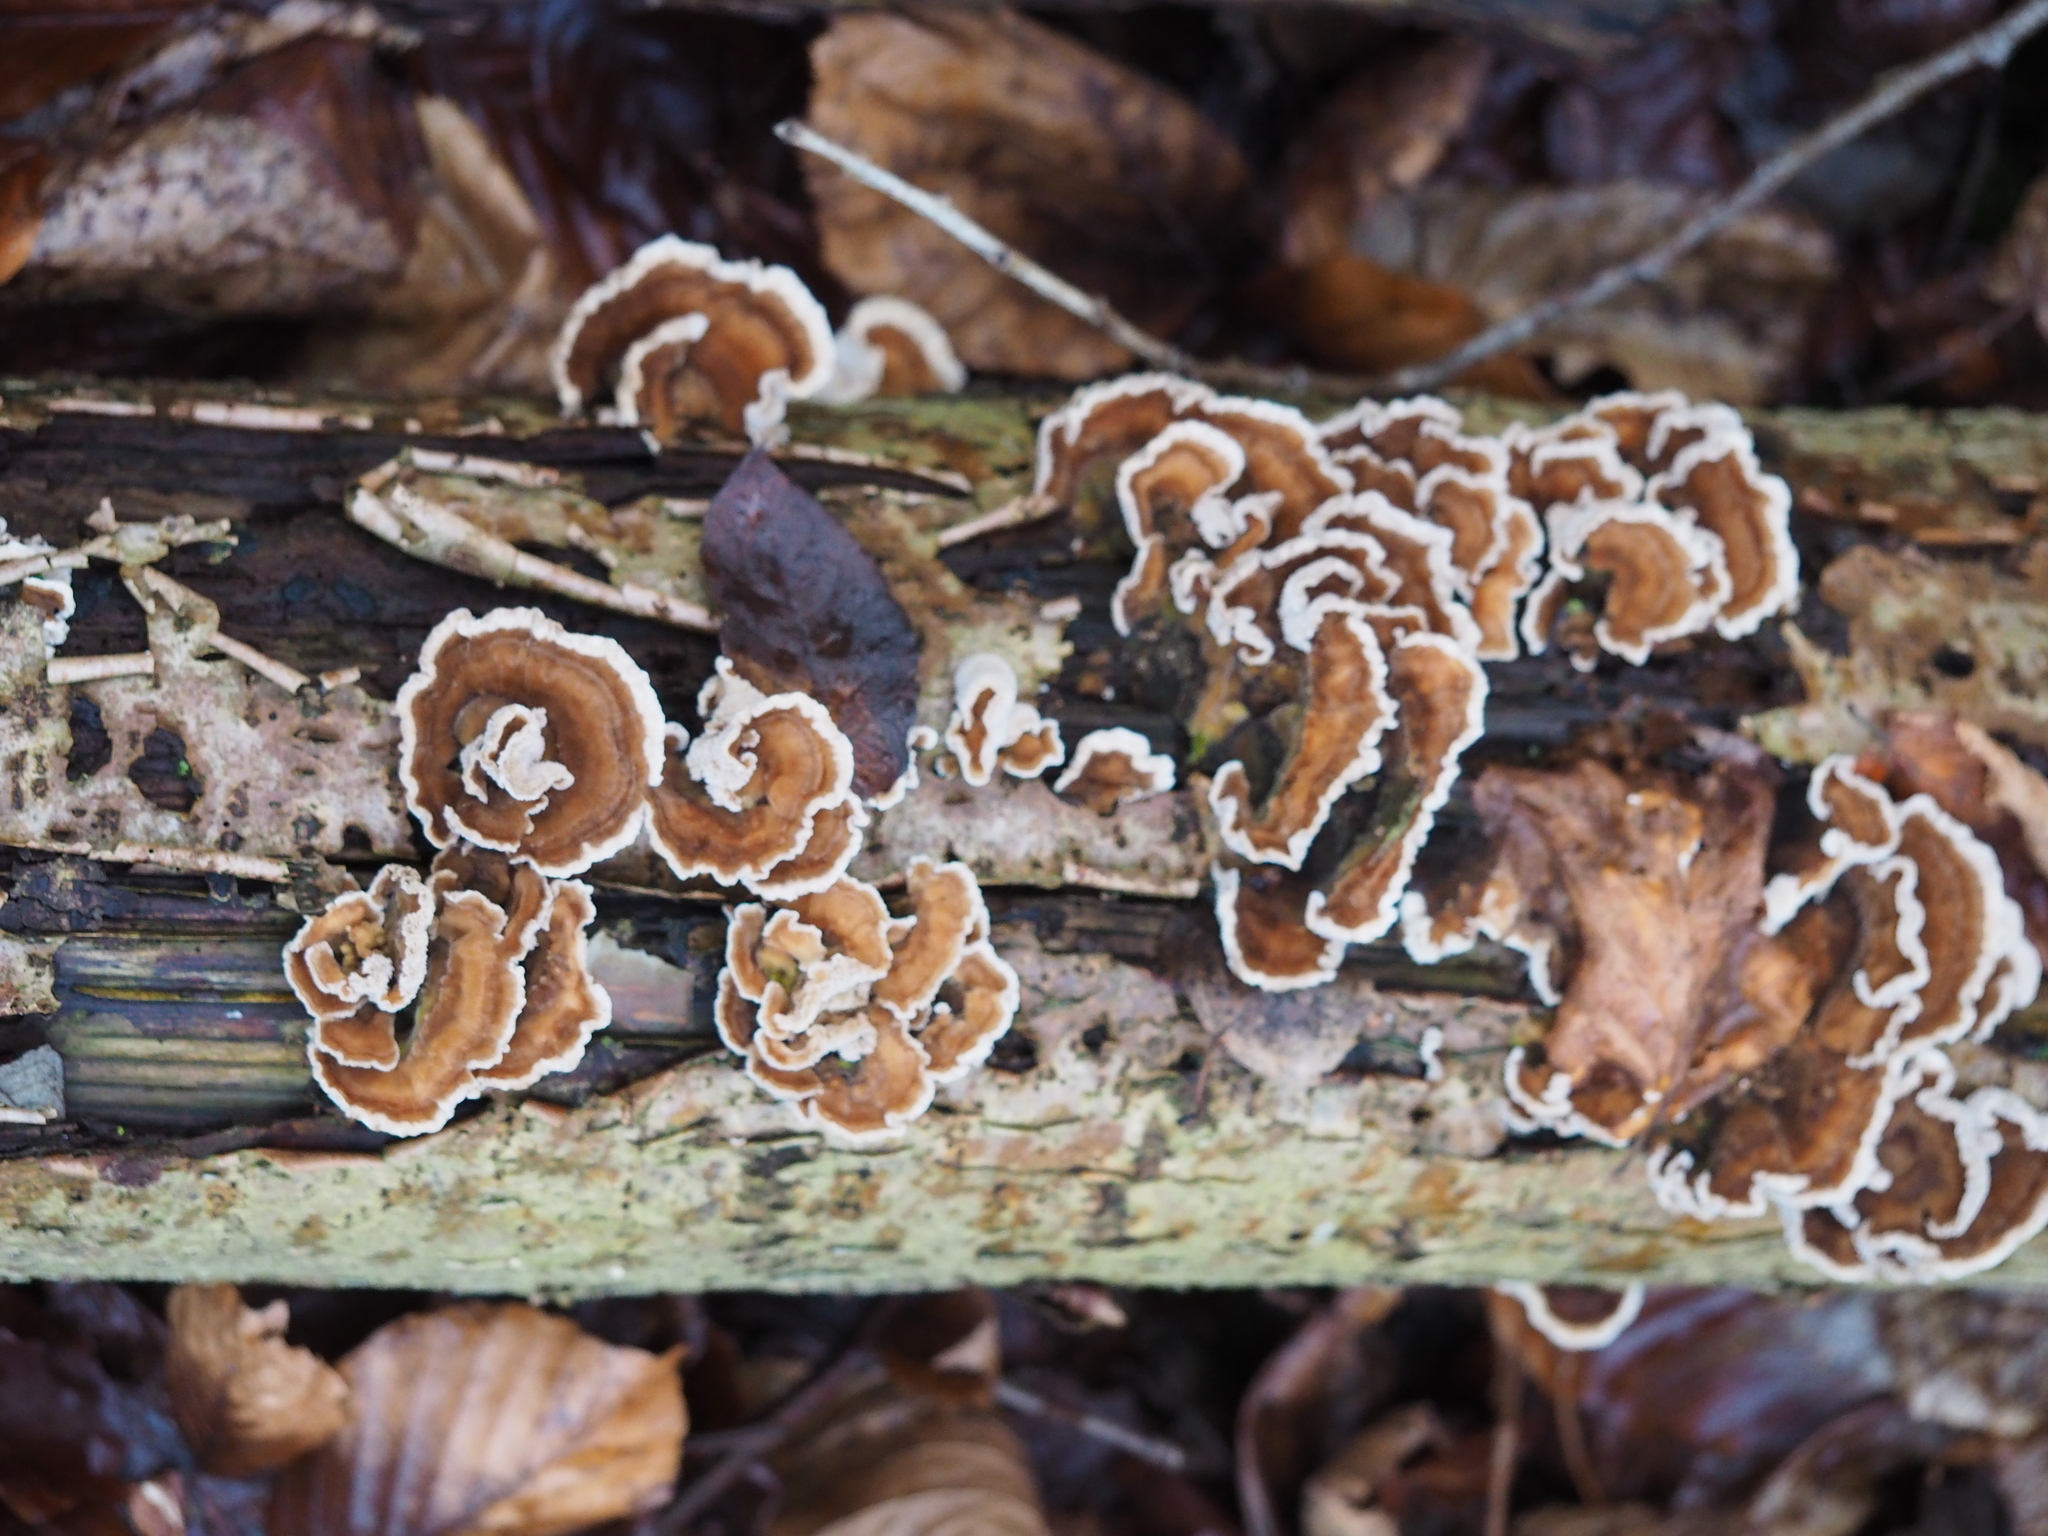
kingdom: Fungi
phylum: Basidiomycota
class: Agaricomycetes
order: Polyporales
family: Polyporaceae
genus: Trametes
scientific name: Trametes versicolor
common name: Turkeytail
